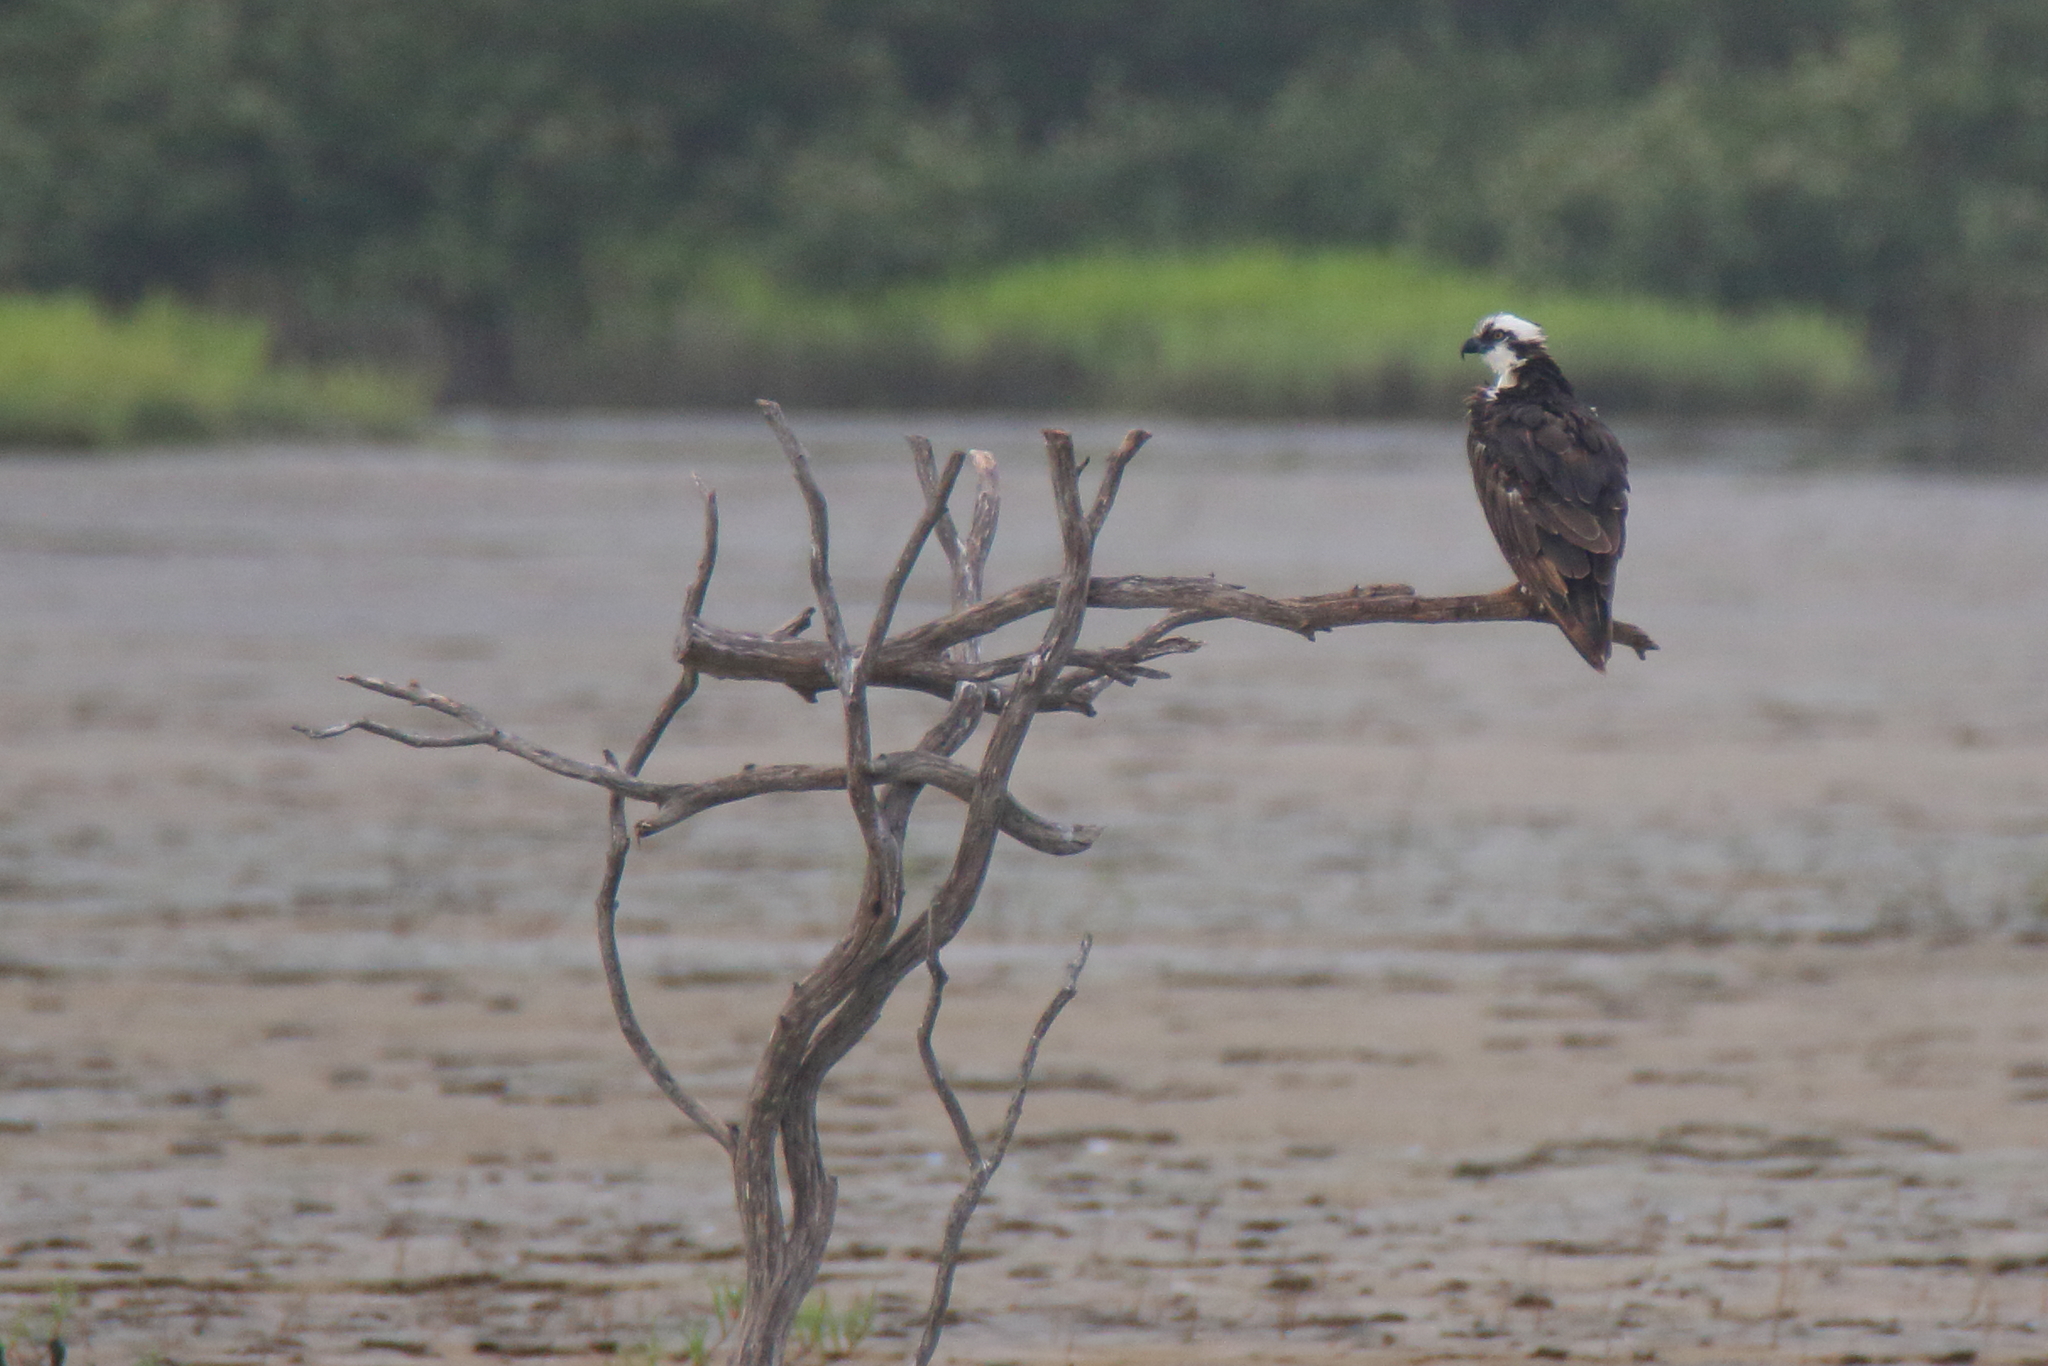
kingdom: Animalia
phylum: Chordata
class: Aves
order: Accipitriformes
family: Pandionidae
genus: Pandion
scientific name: Pandion haliaetus
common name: Osprey
